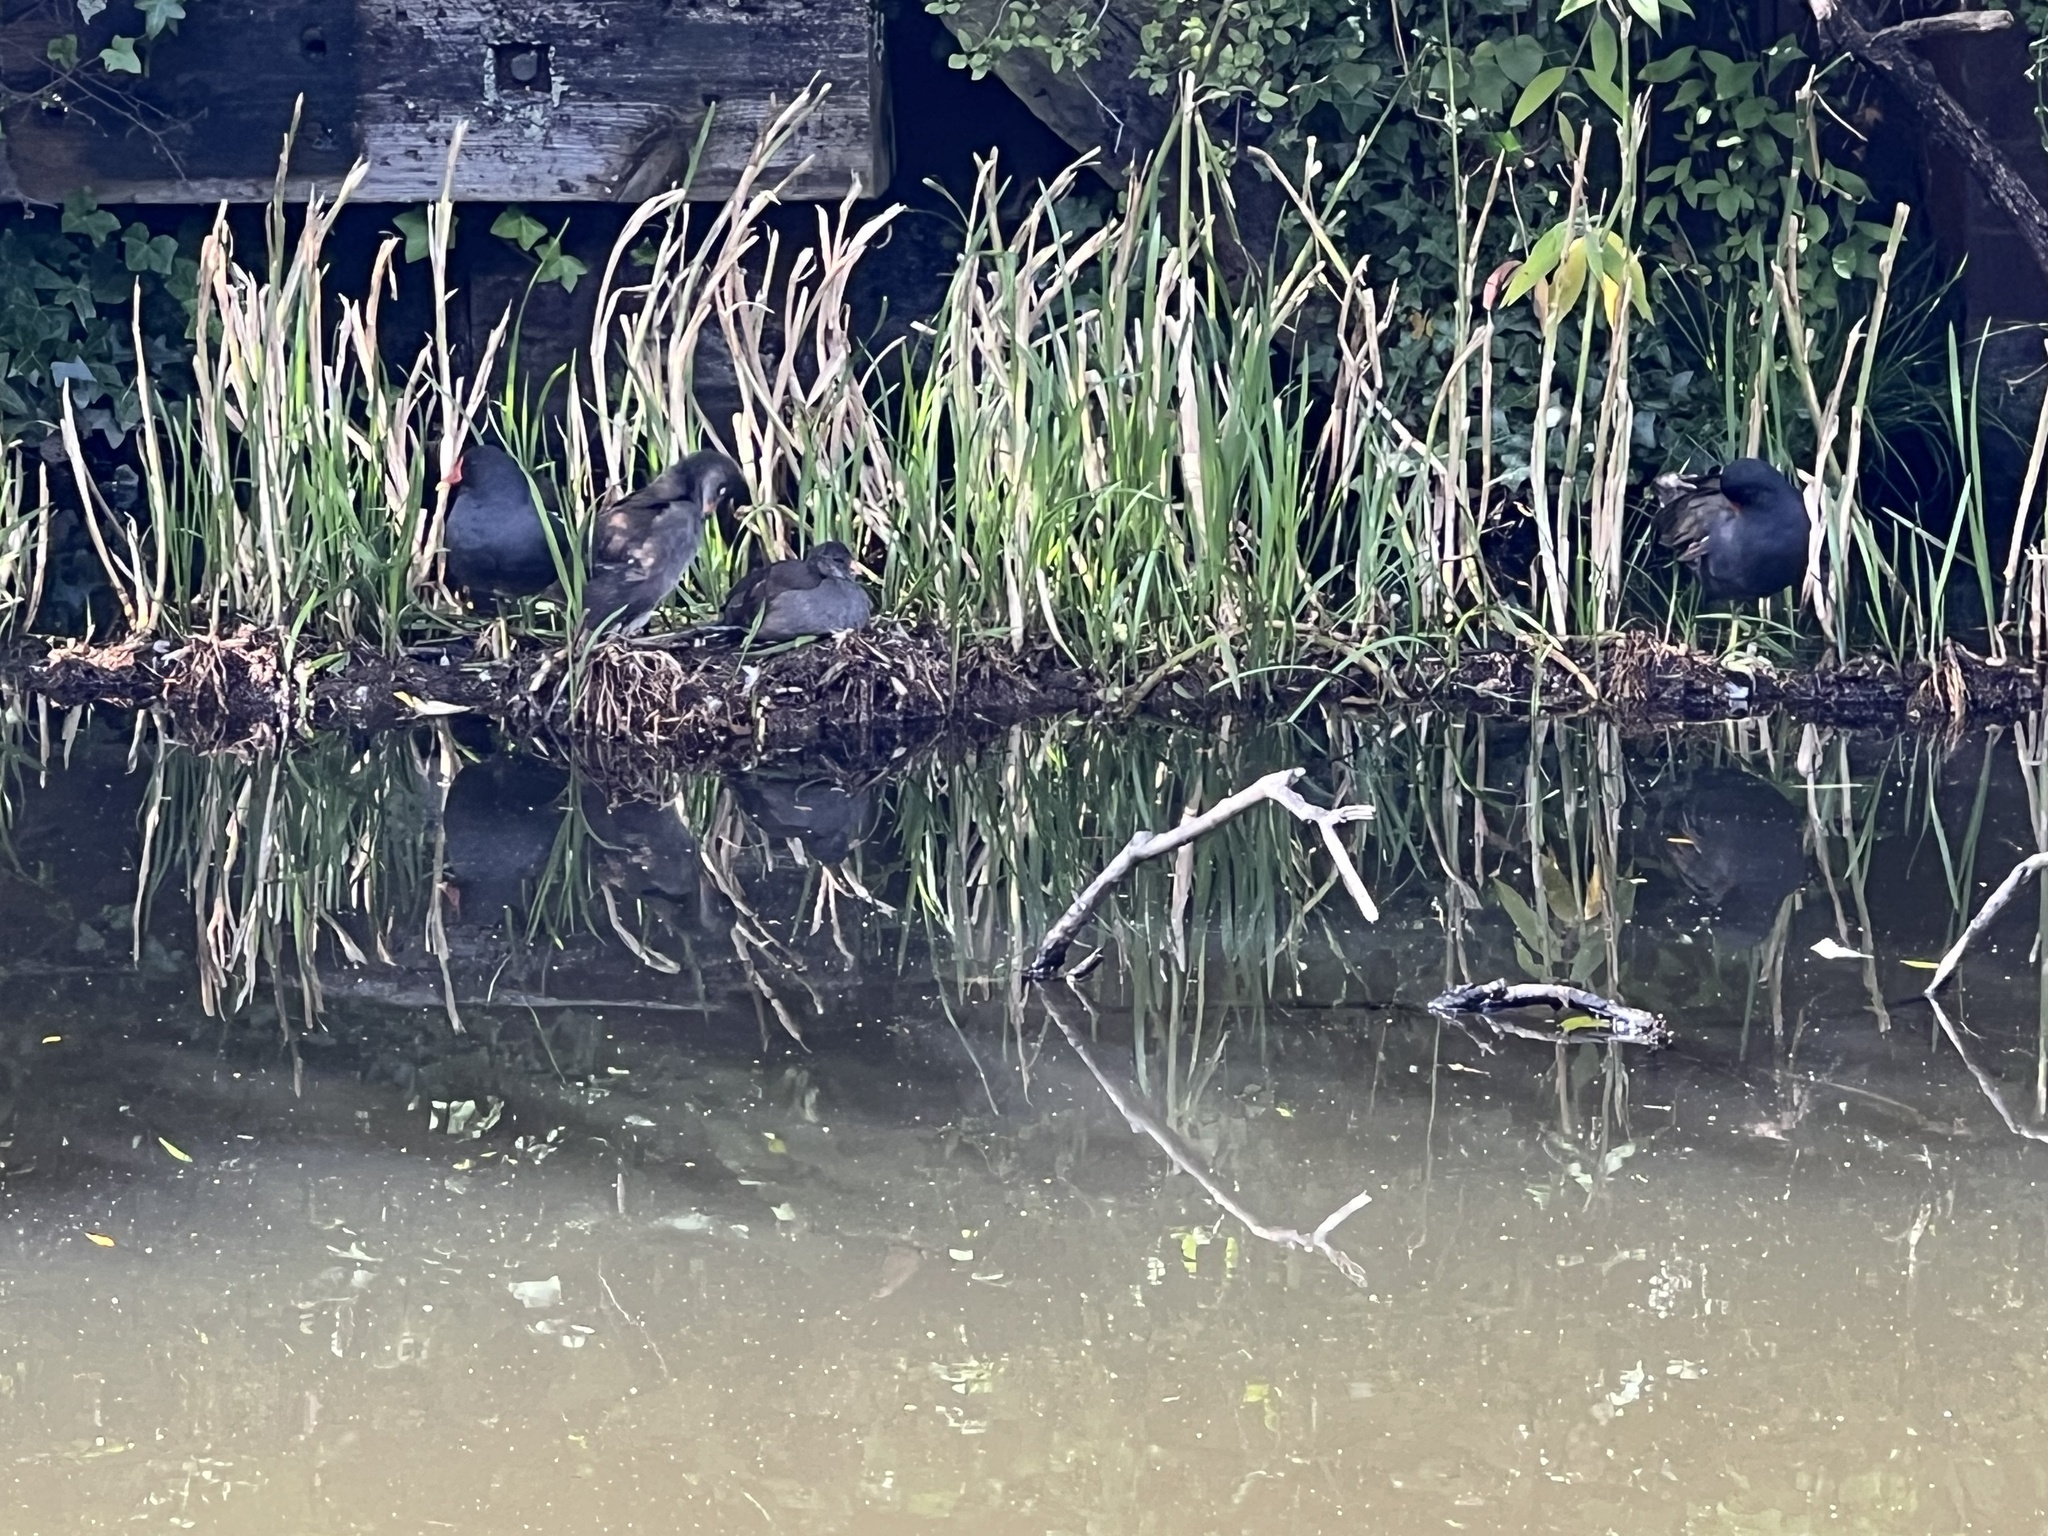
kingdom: Animalia
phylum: Chordata
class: Aves
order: Gruiformes
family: Rallidae
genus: Gallinula
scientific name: Gallinula chloropus
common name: Common moorhen
